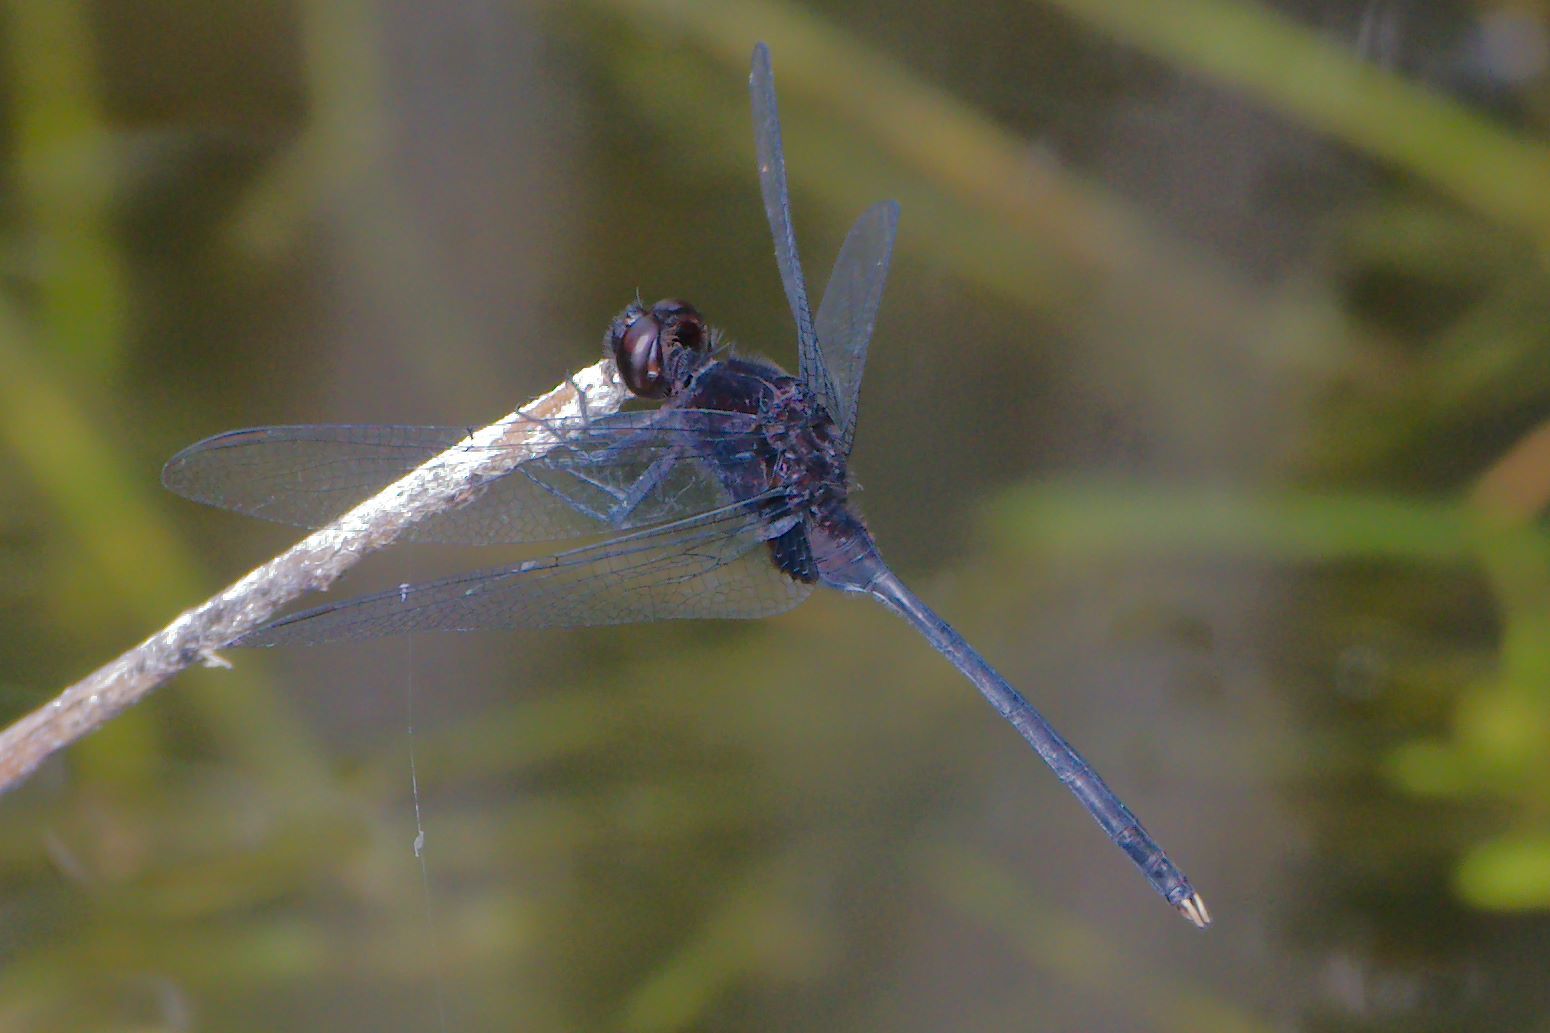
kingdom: Animalia
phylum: Arthropoda
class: Insecta
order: Odonata
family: Libellulidae
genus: Erythemis
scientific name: Erythemis plebeja
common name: Pin-tailed pondhawk
